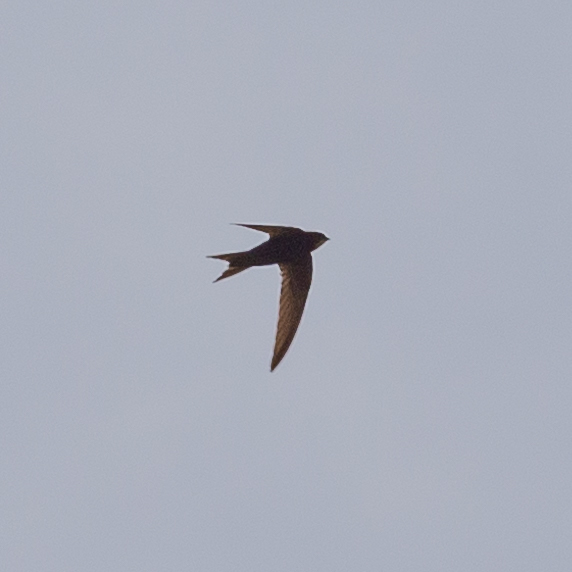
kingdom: Animalia
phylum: Chordata
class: Aves
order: Apodiformes
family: Apodidae
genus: Apus
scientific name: Apus apus
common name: Common swift
